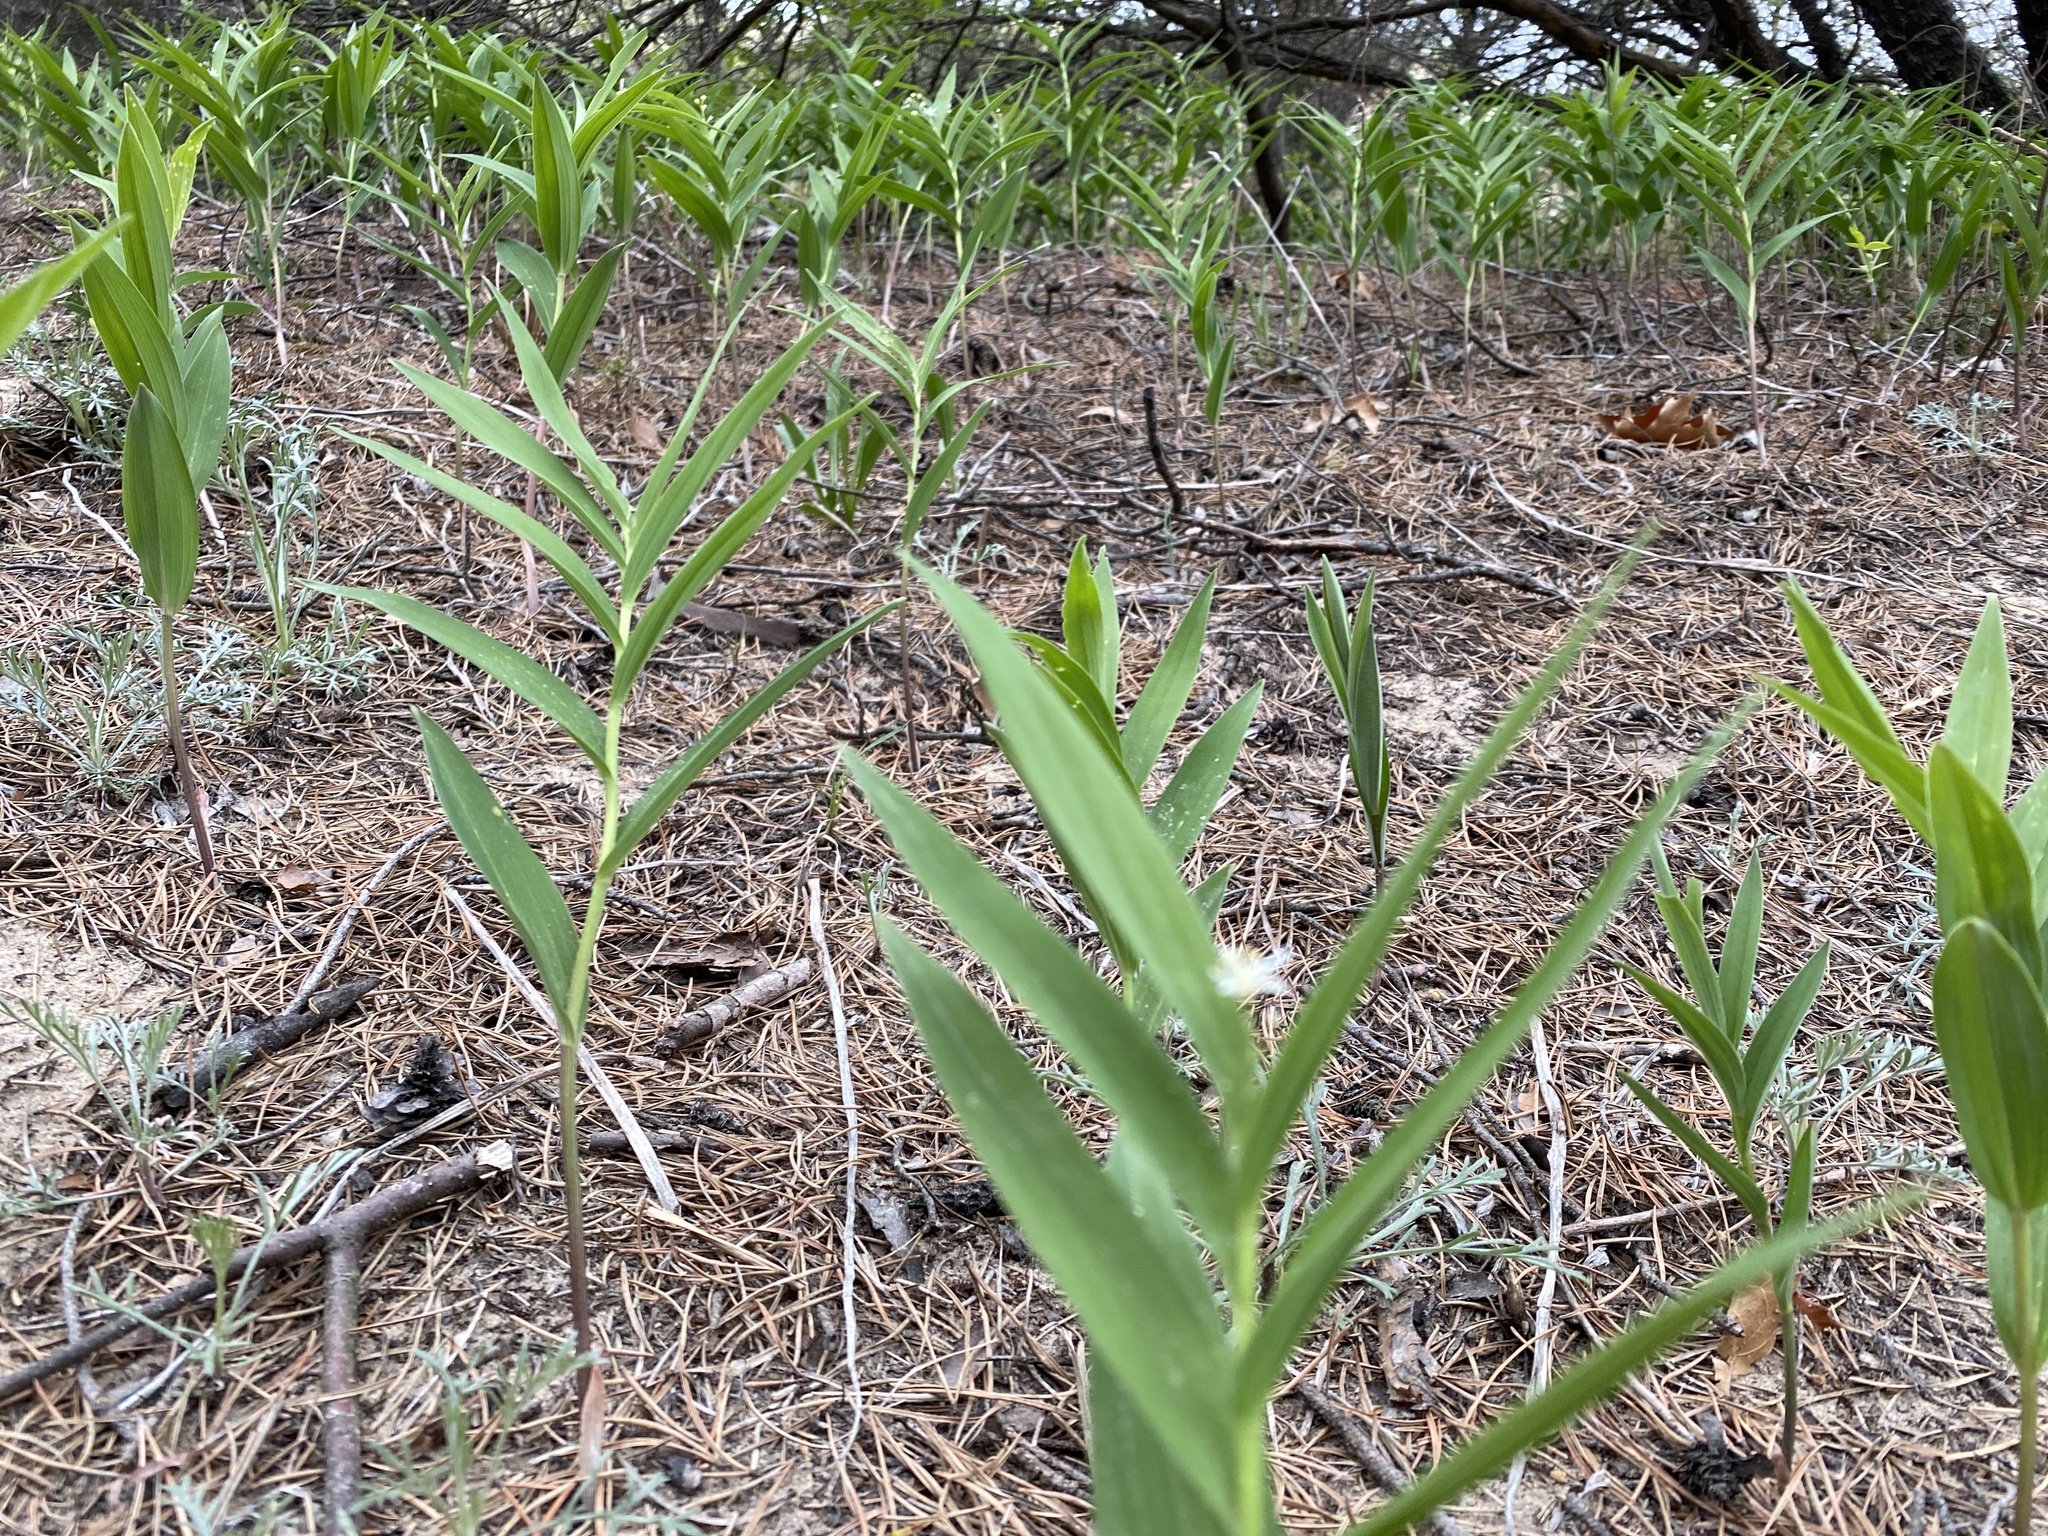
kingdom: Plantae
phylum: Tracheophyta
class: Liliopsida
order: Asparagales
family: Asparagaceae
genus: Maianthemum
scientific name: Maianthemum stellatum
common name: Little false solomon's seal
